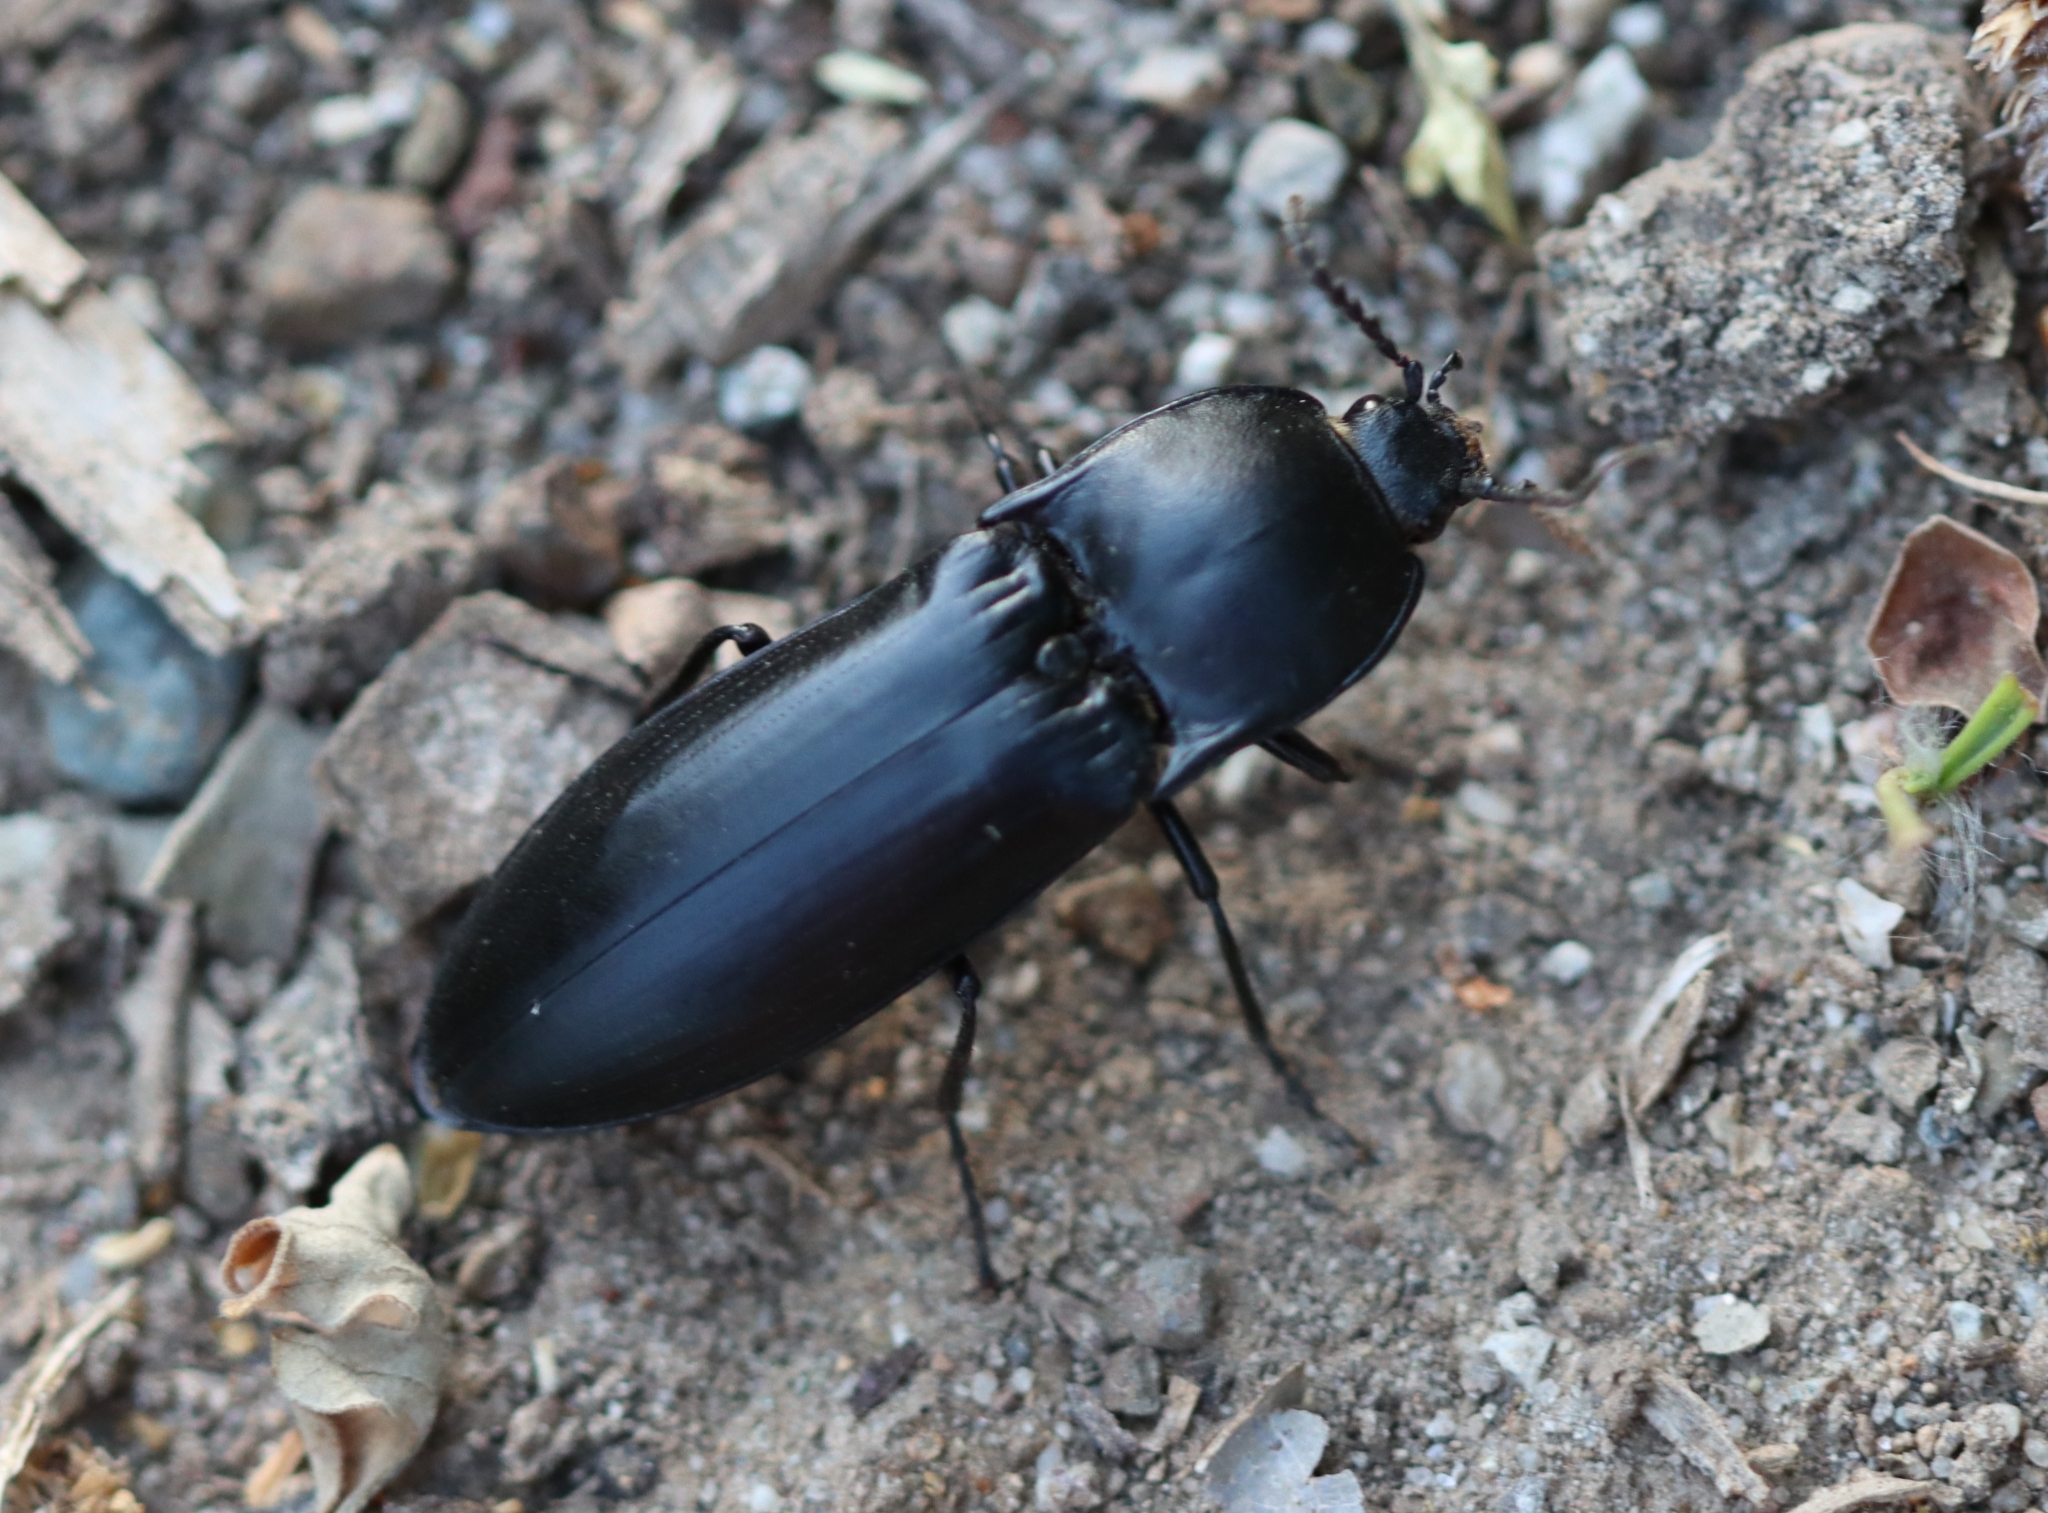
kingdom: Animalia
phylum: Arthropoda
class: Insecta
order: Coleoptera
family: Elateridae
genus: Melanactes
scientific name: Melanactes
